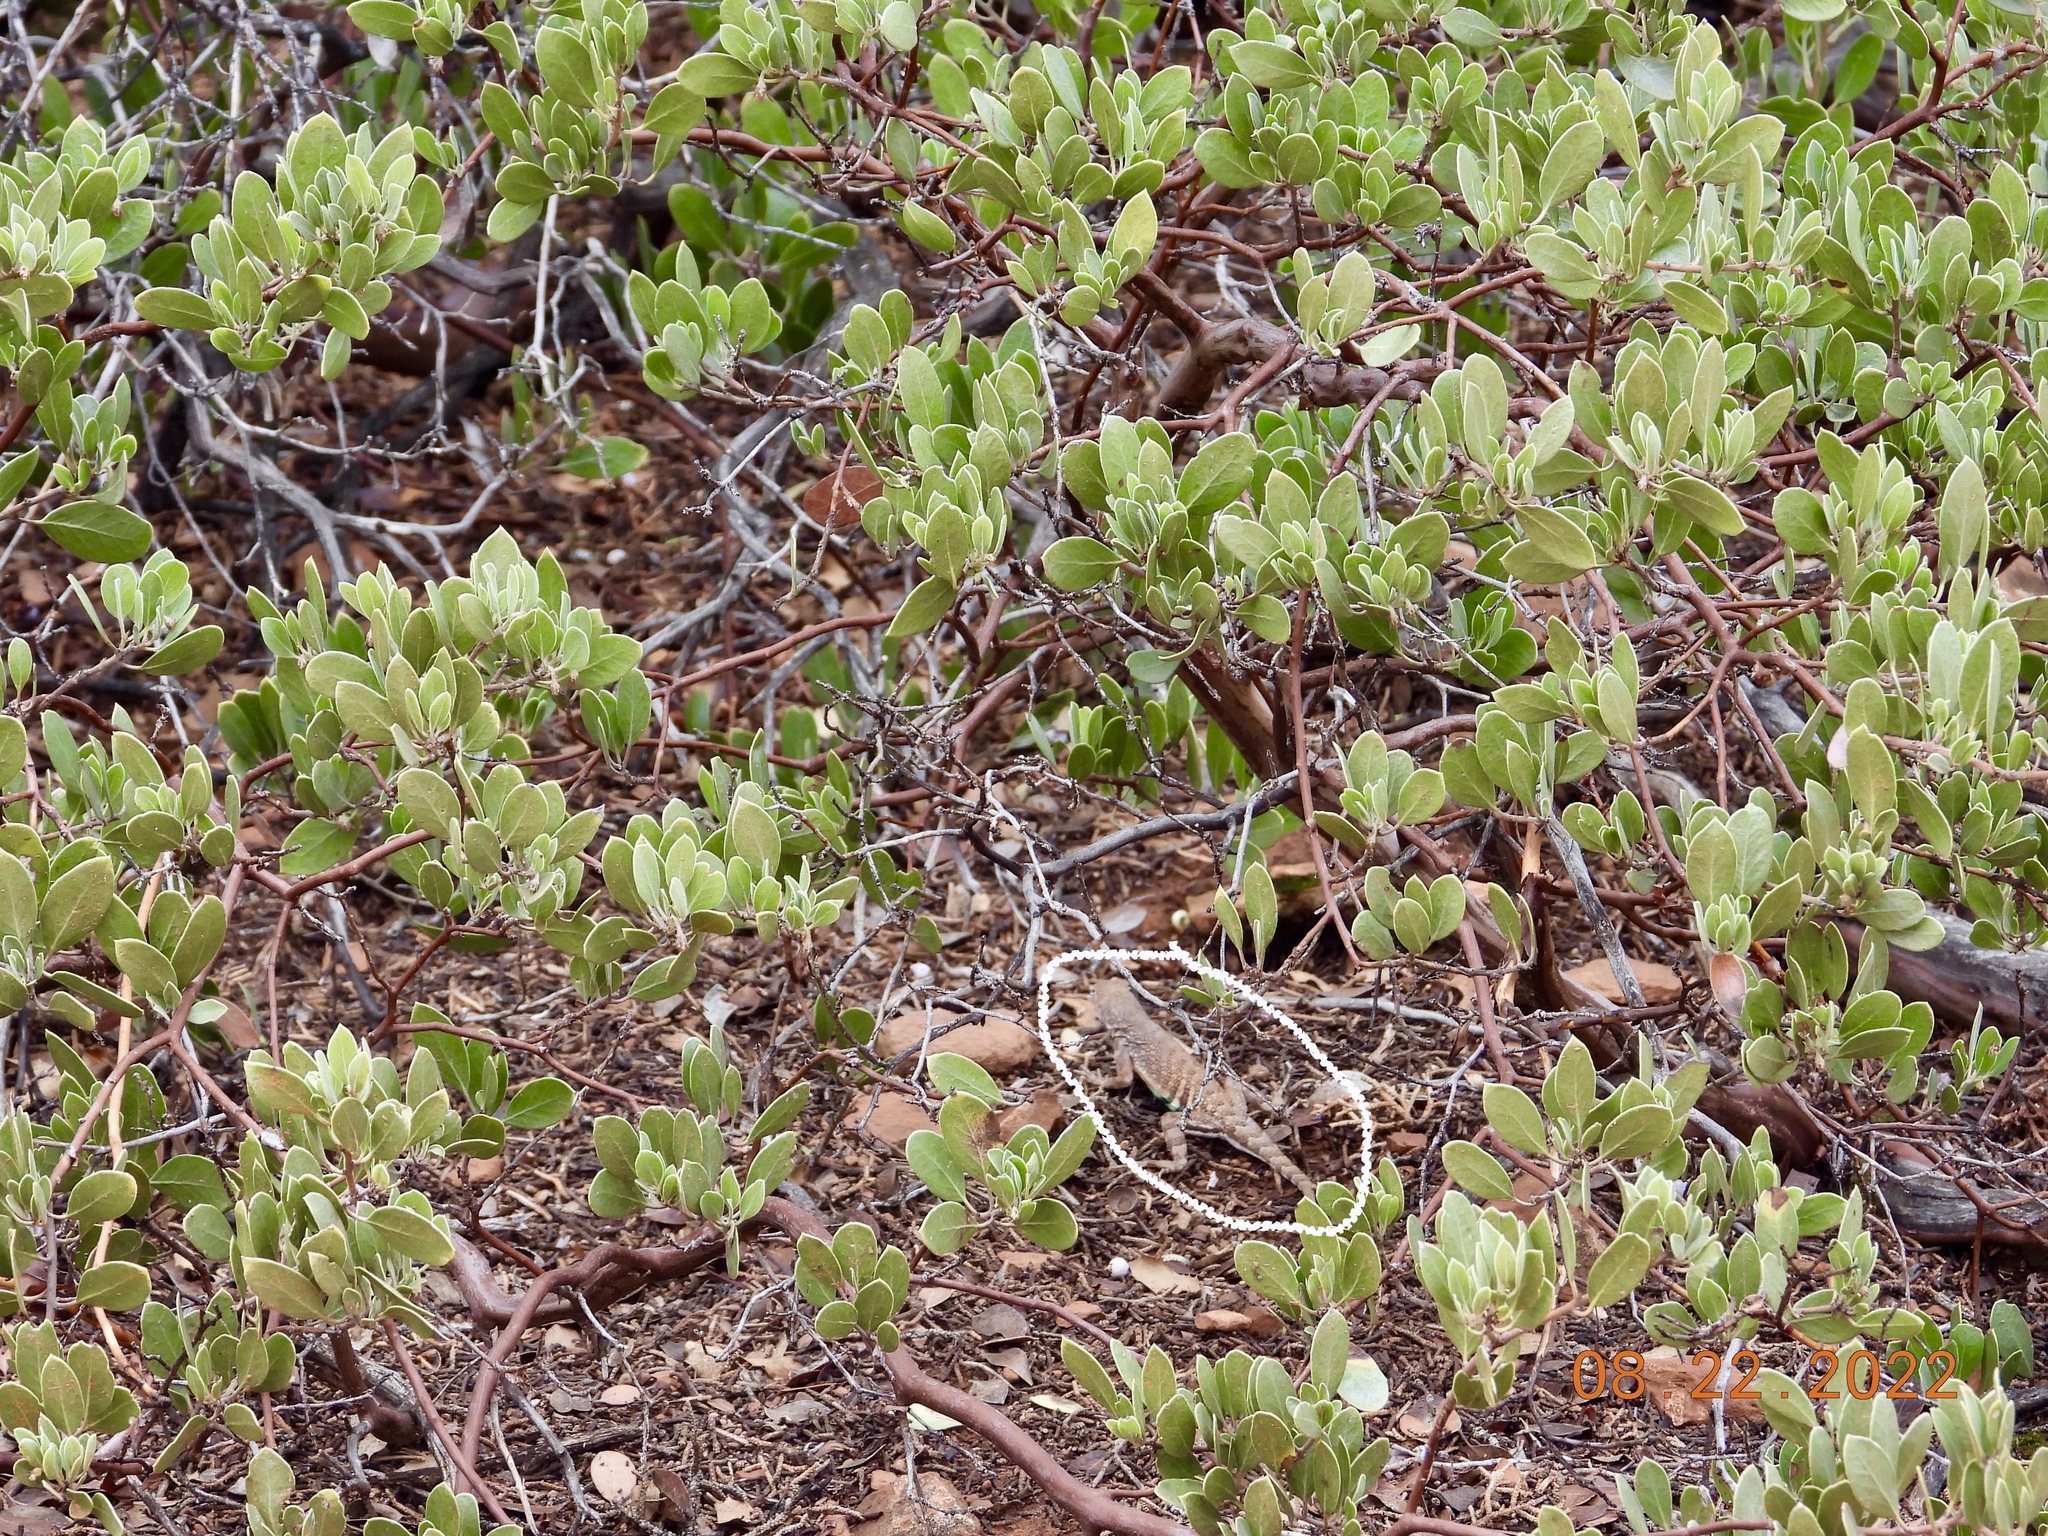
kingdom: Animalia
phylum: Chordata
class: Squamata
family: Phrynosomatidae
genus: Cophosaurus
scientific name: Cophosaurus texanus
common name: Greater earless lizard
